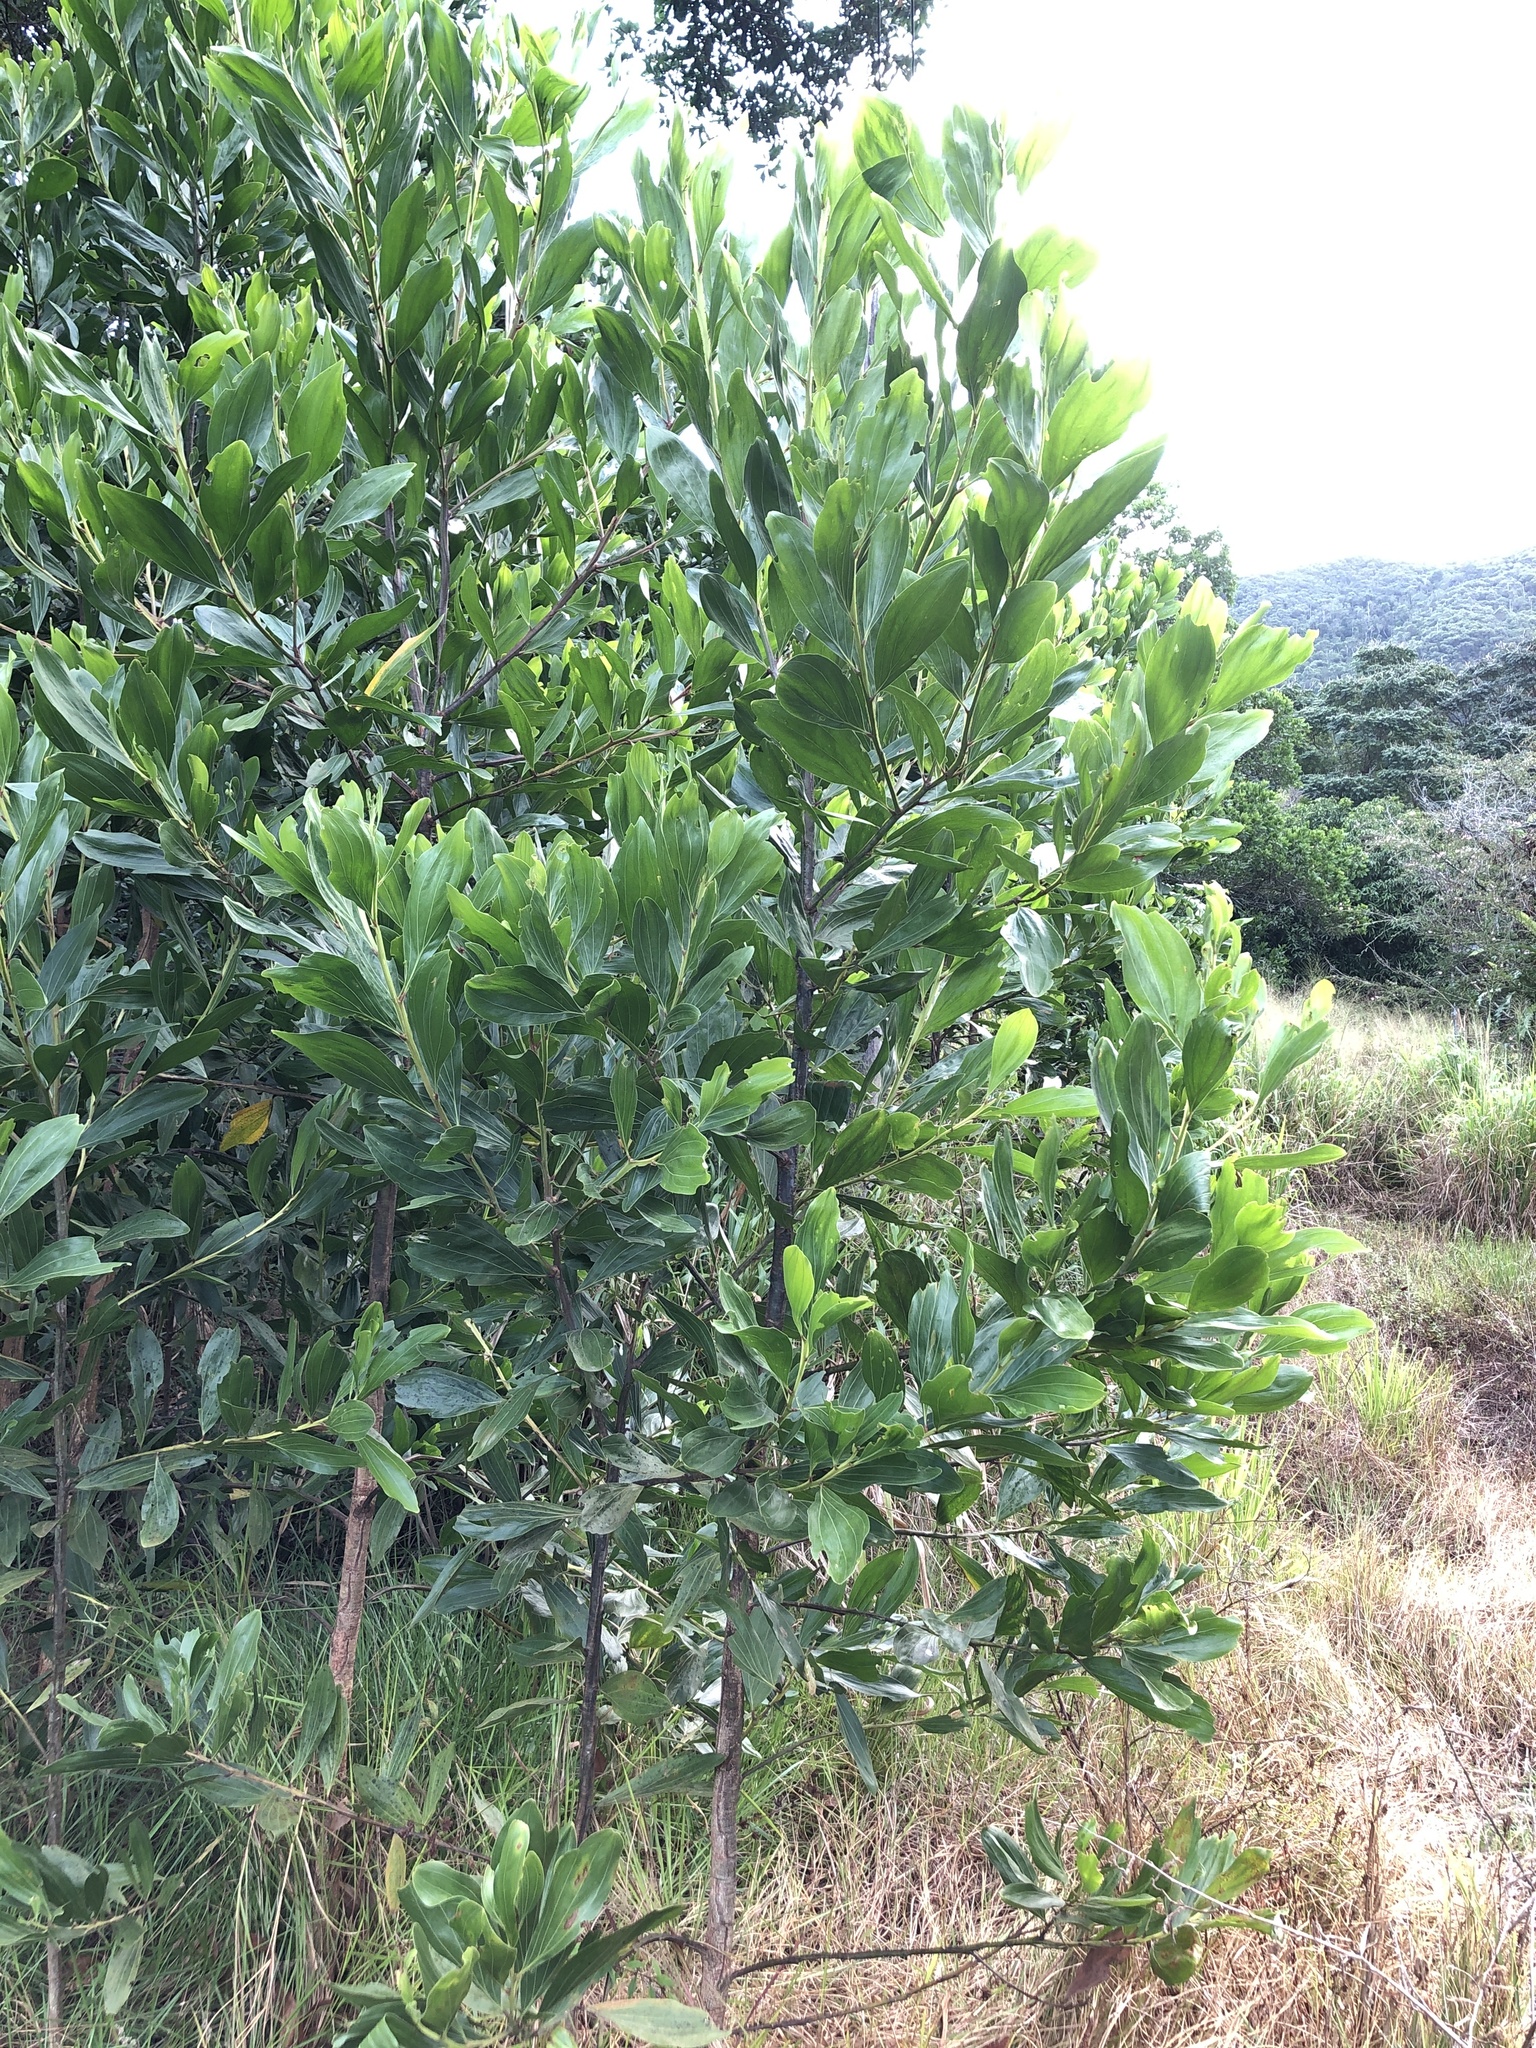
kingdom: Plantae
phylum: Tracheophyta
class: Magnoliopsida
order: Fabales
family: Fabaceae
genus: Acacia
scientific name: Acacia mangium
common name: Black wattle
